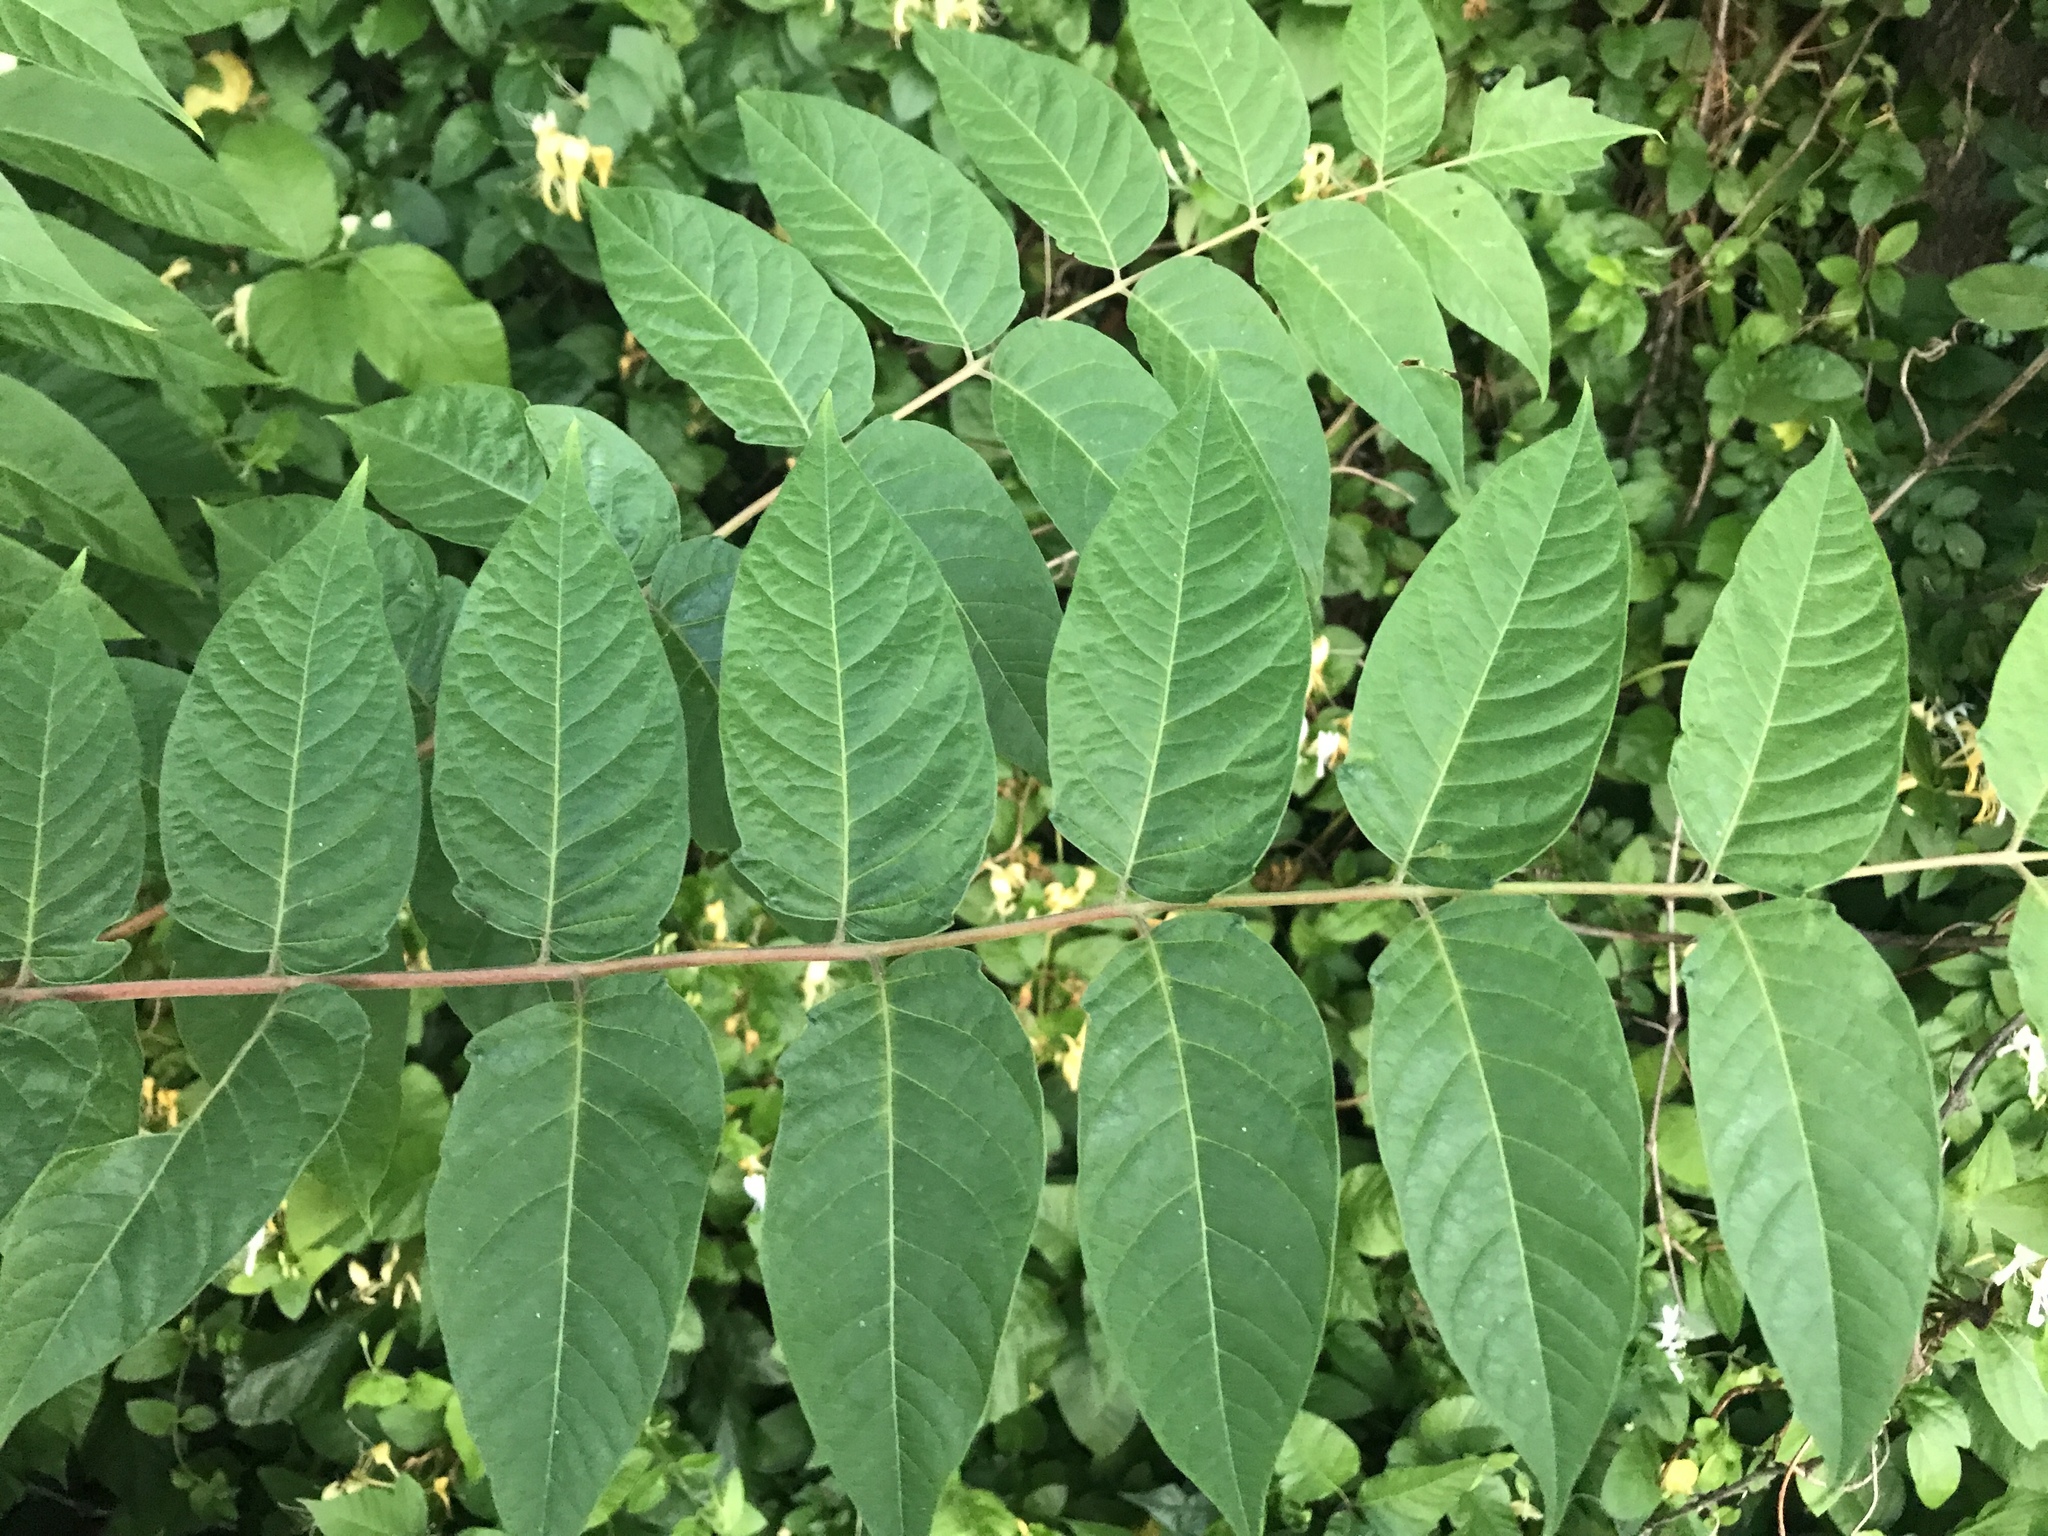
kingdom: Plantae
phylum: Tracheophyta
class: Magnoliopsida
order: Sapindales
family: Simaroubaceae
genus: Ailanthus
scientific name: Ailanthus altissima
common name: Tree-of-heaven
